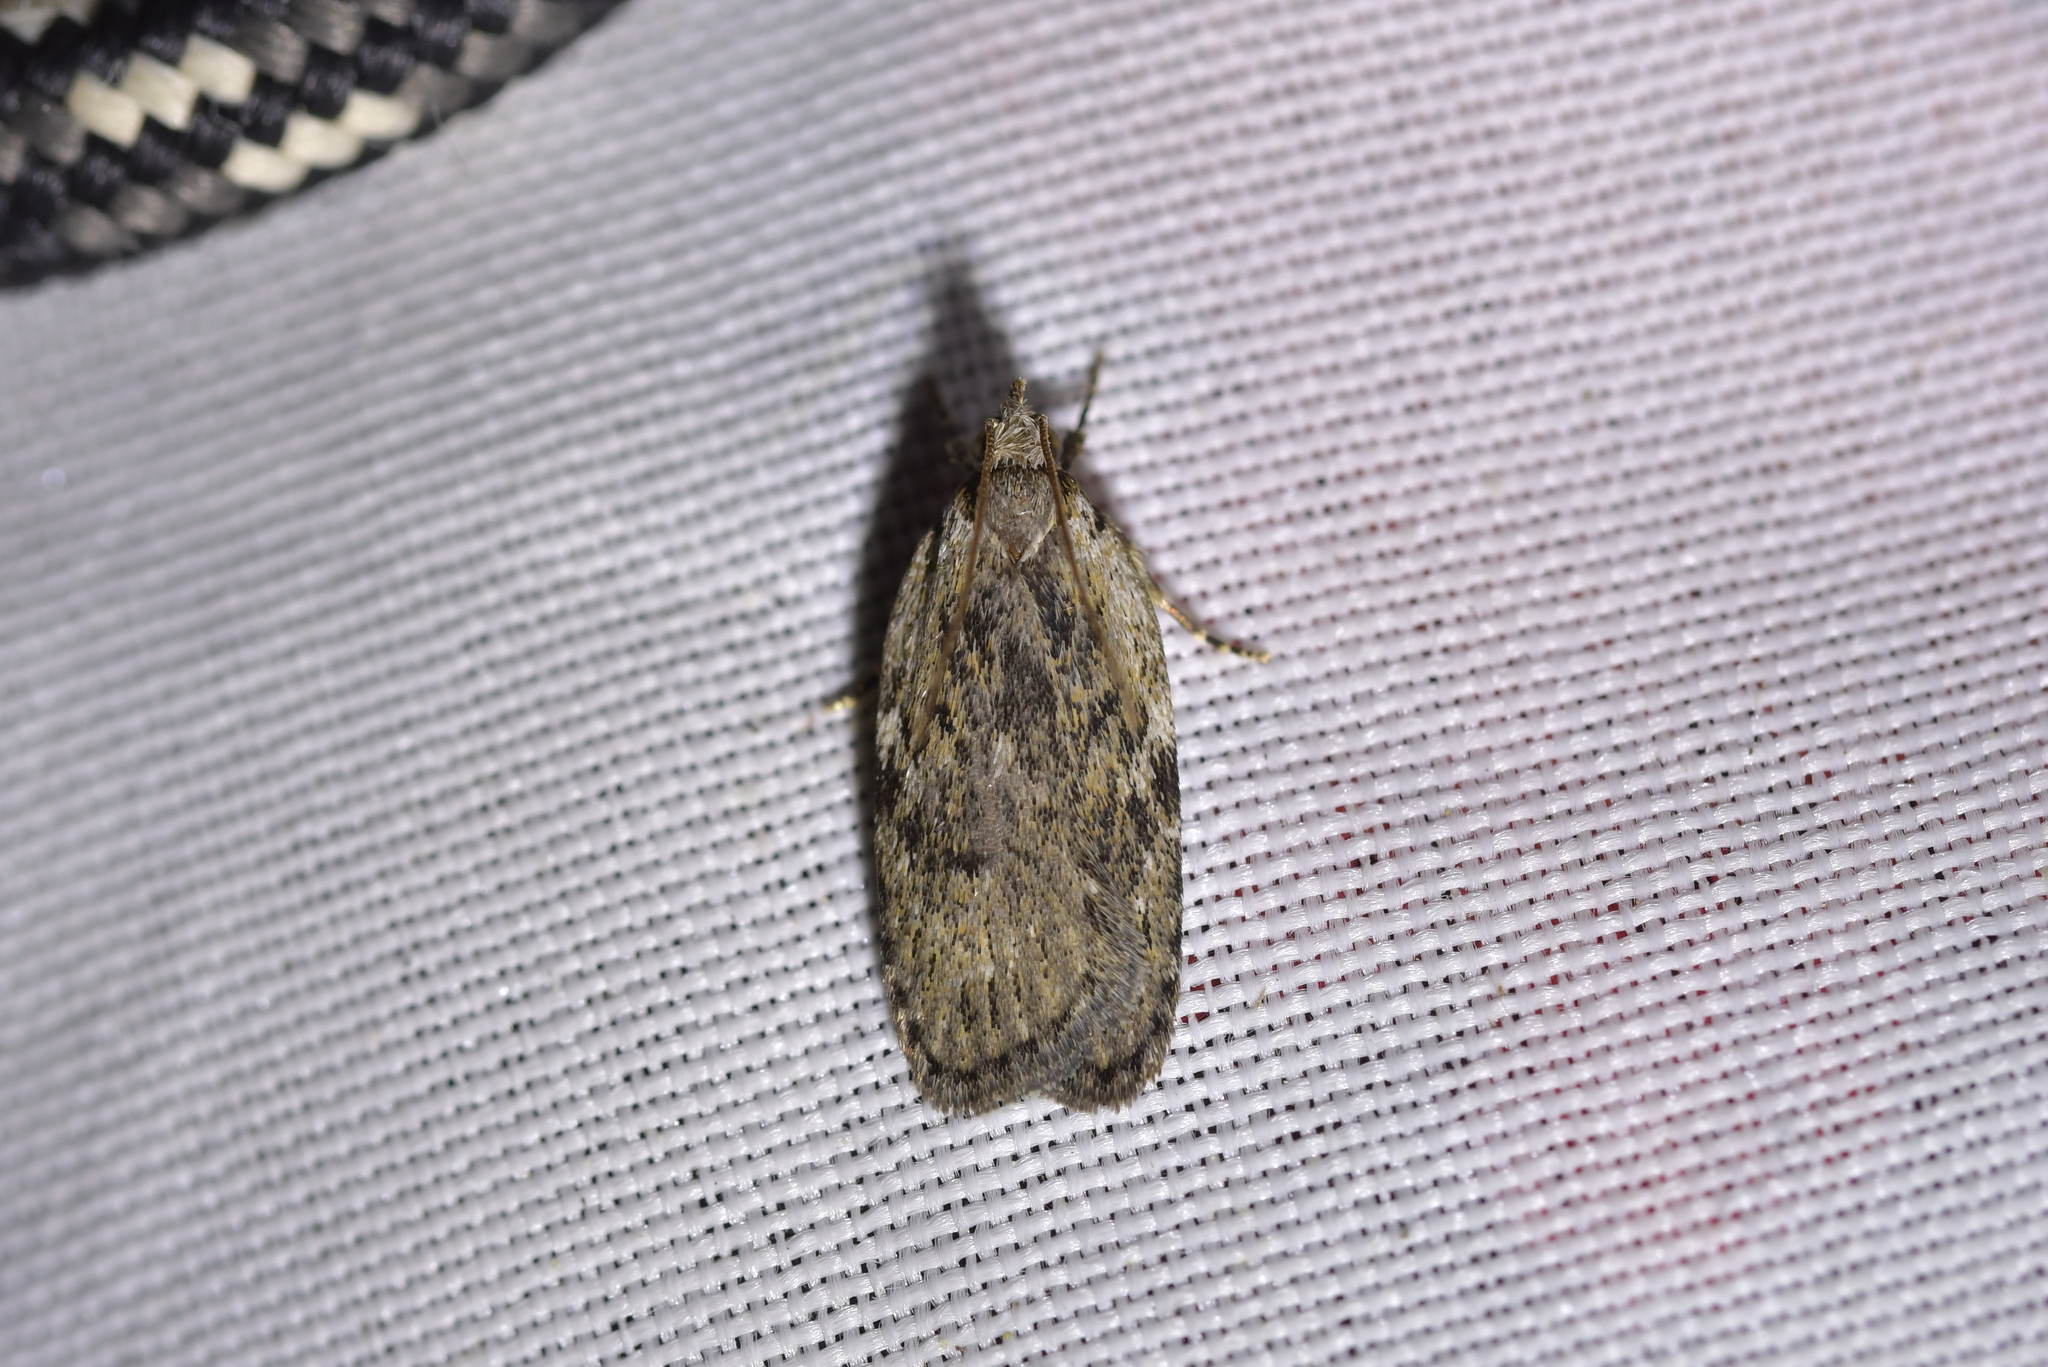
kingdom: Animalia
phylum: Arthropoda
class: Insecta
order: Lepidoptera
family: Depressariidae
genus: Phaeosaces
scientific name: Phaeosaces compsotypa
